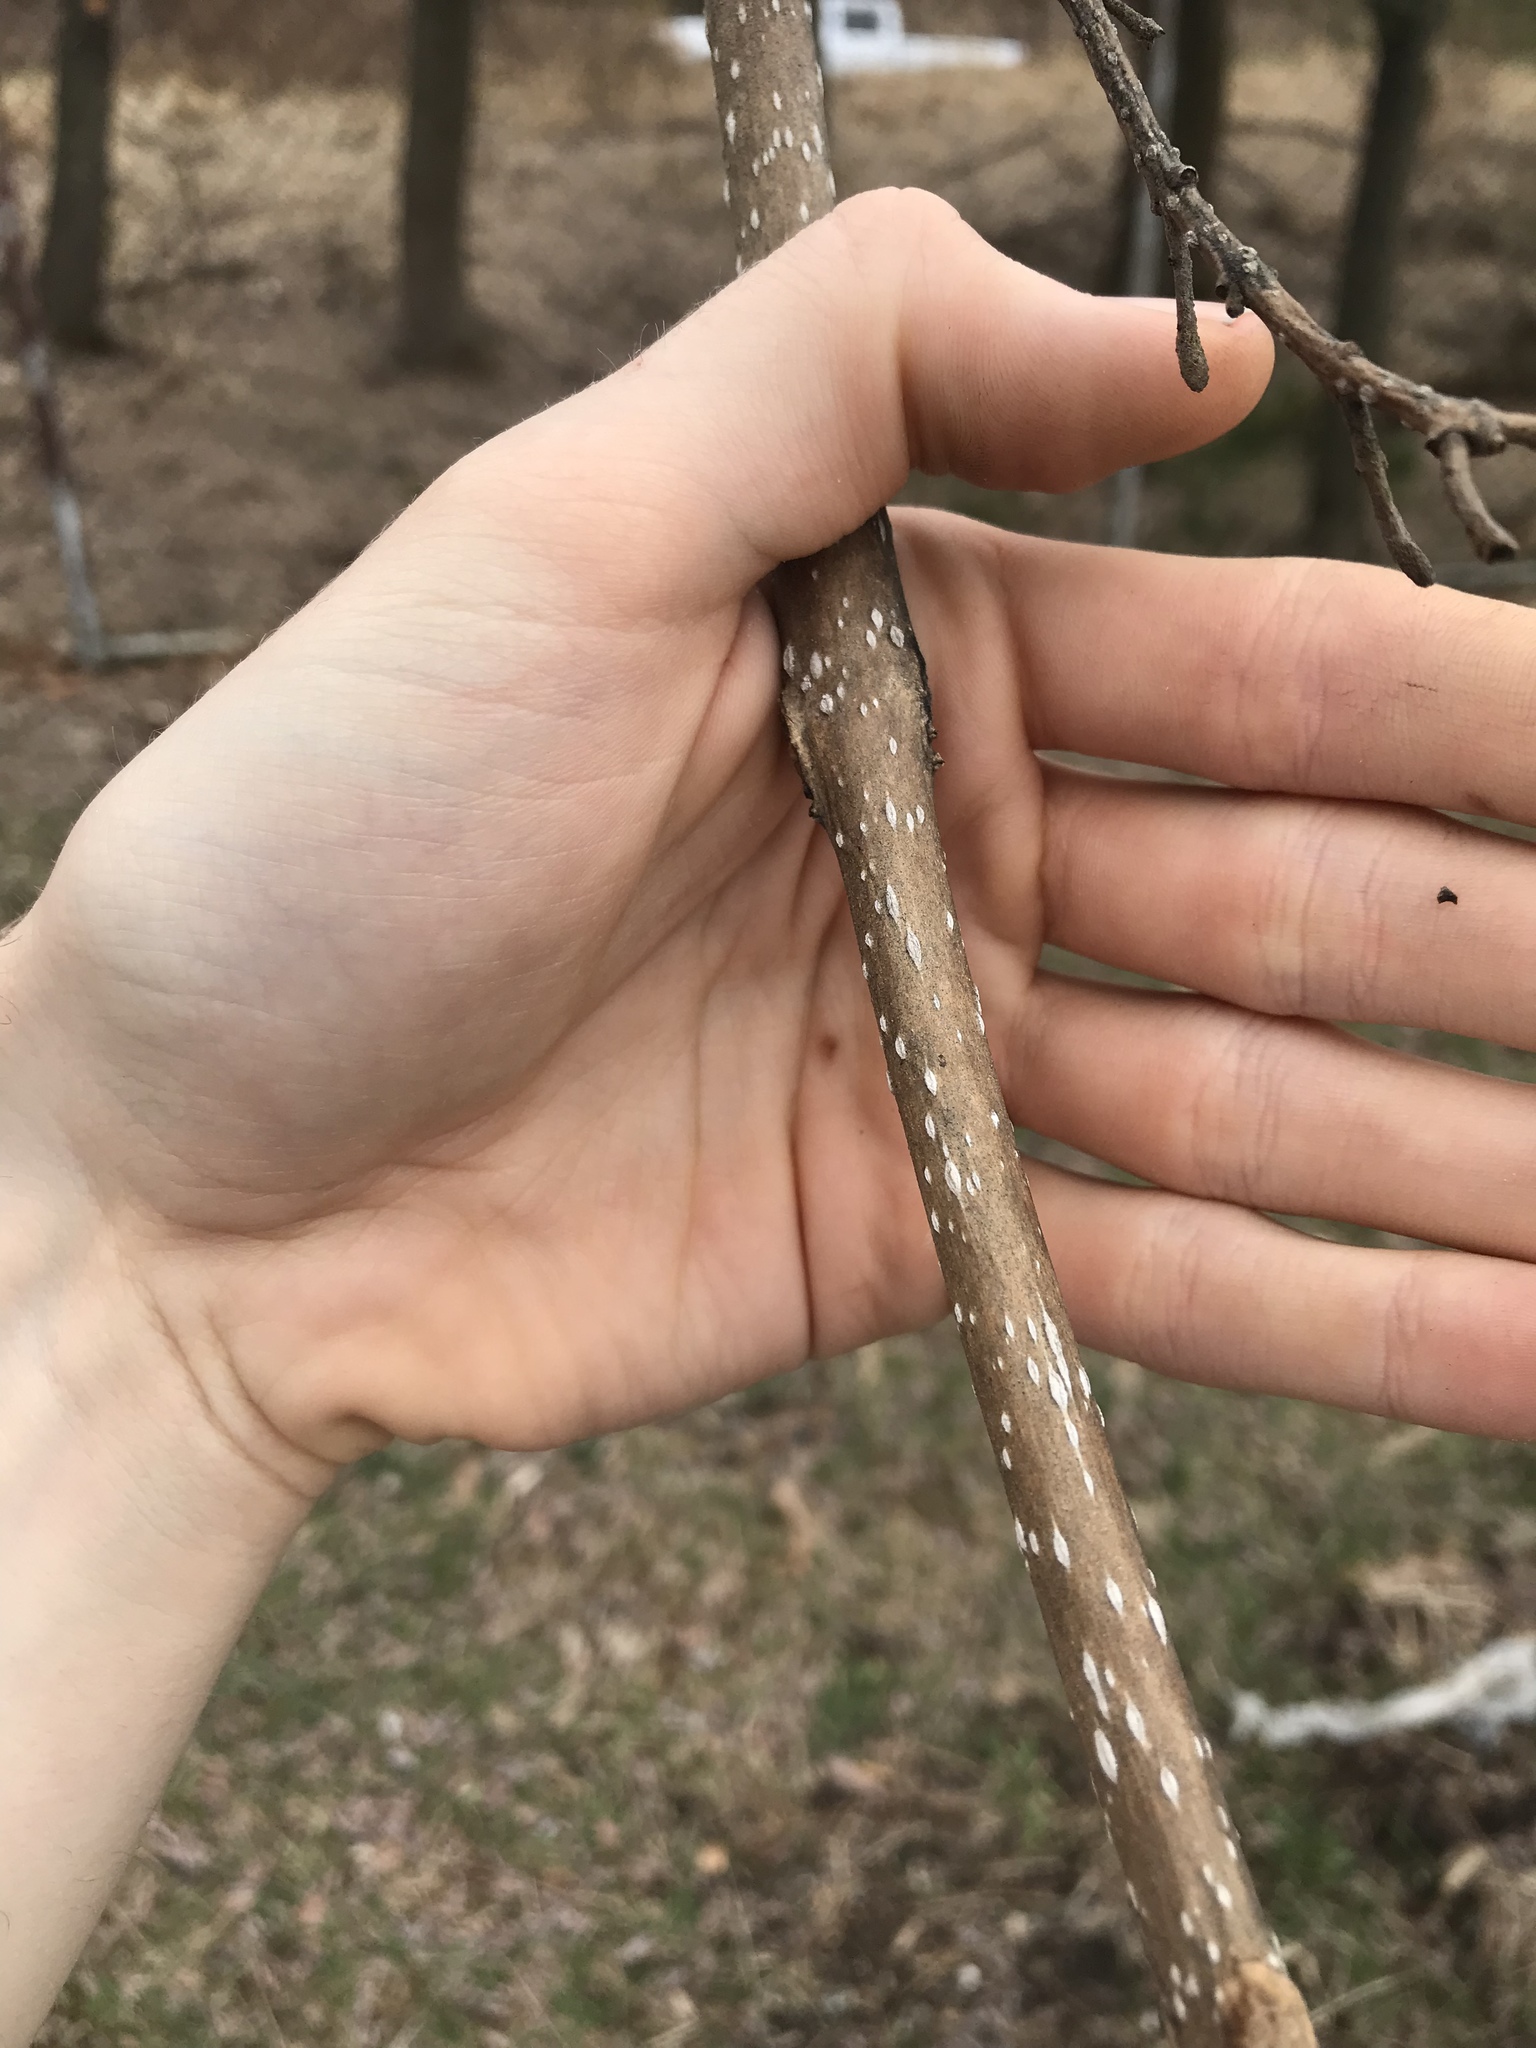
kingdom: Plantae
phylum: Tracheophyta
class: Magnoliopsida
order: Lamiales
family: Paulowniaceae
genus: Paulownia
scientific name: Paulownia tomentosa
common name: Foxglove-tree
